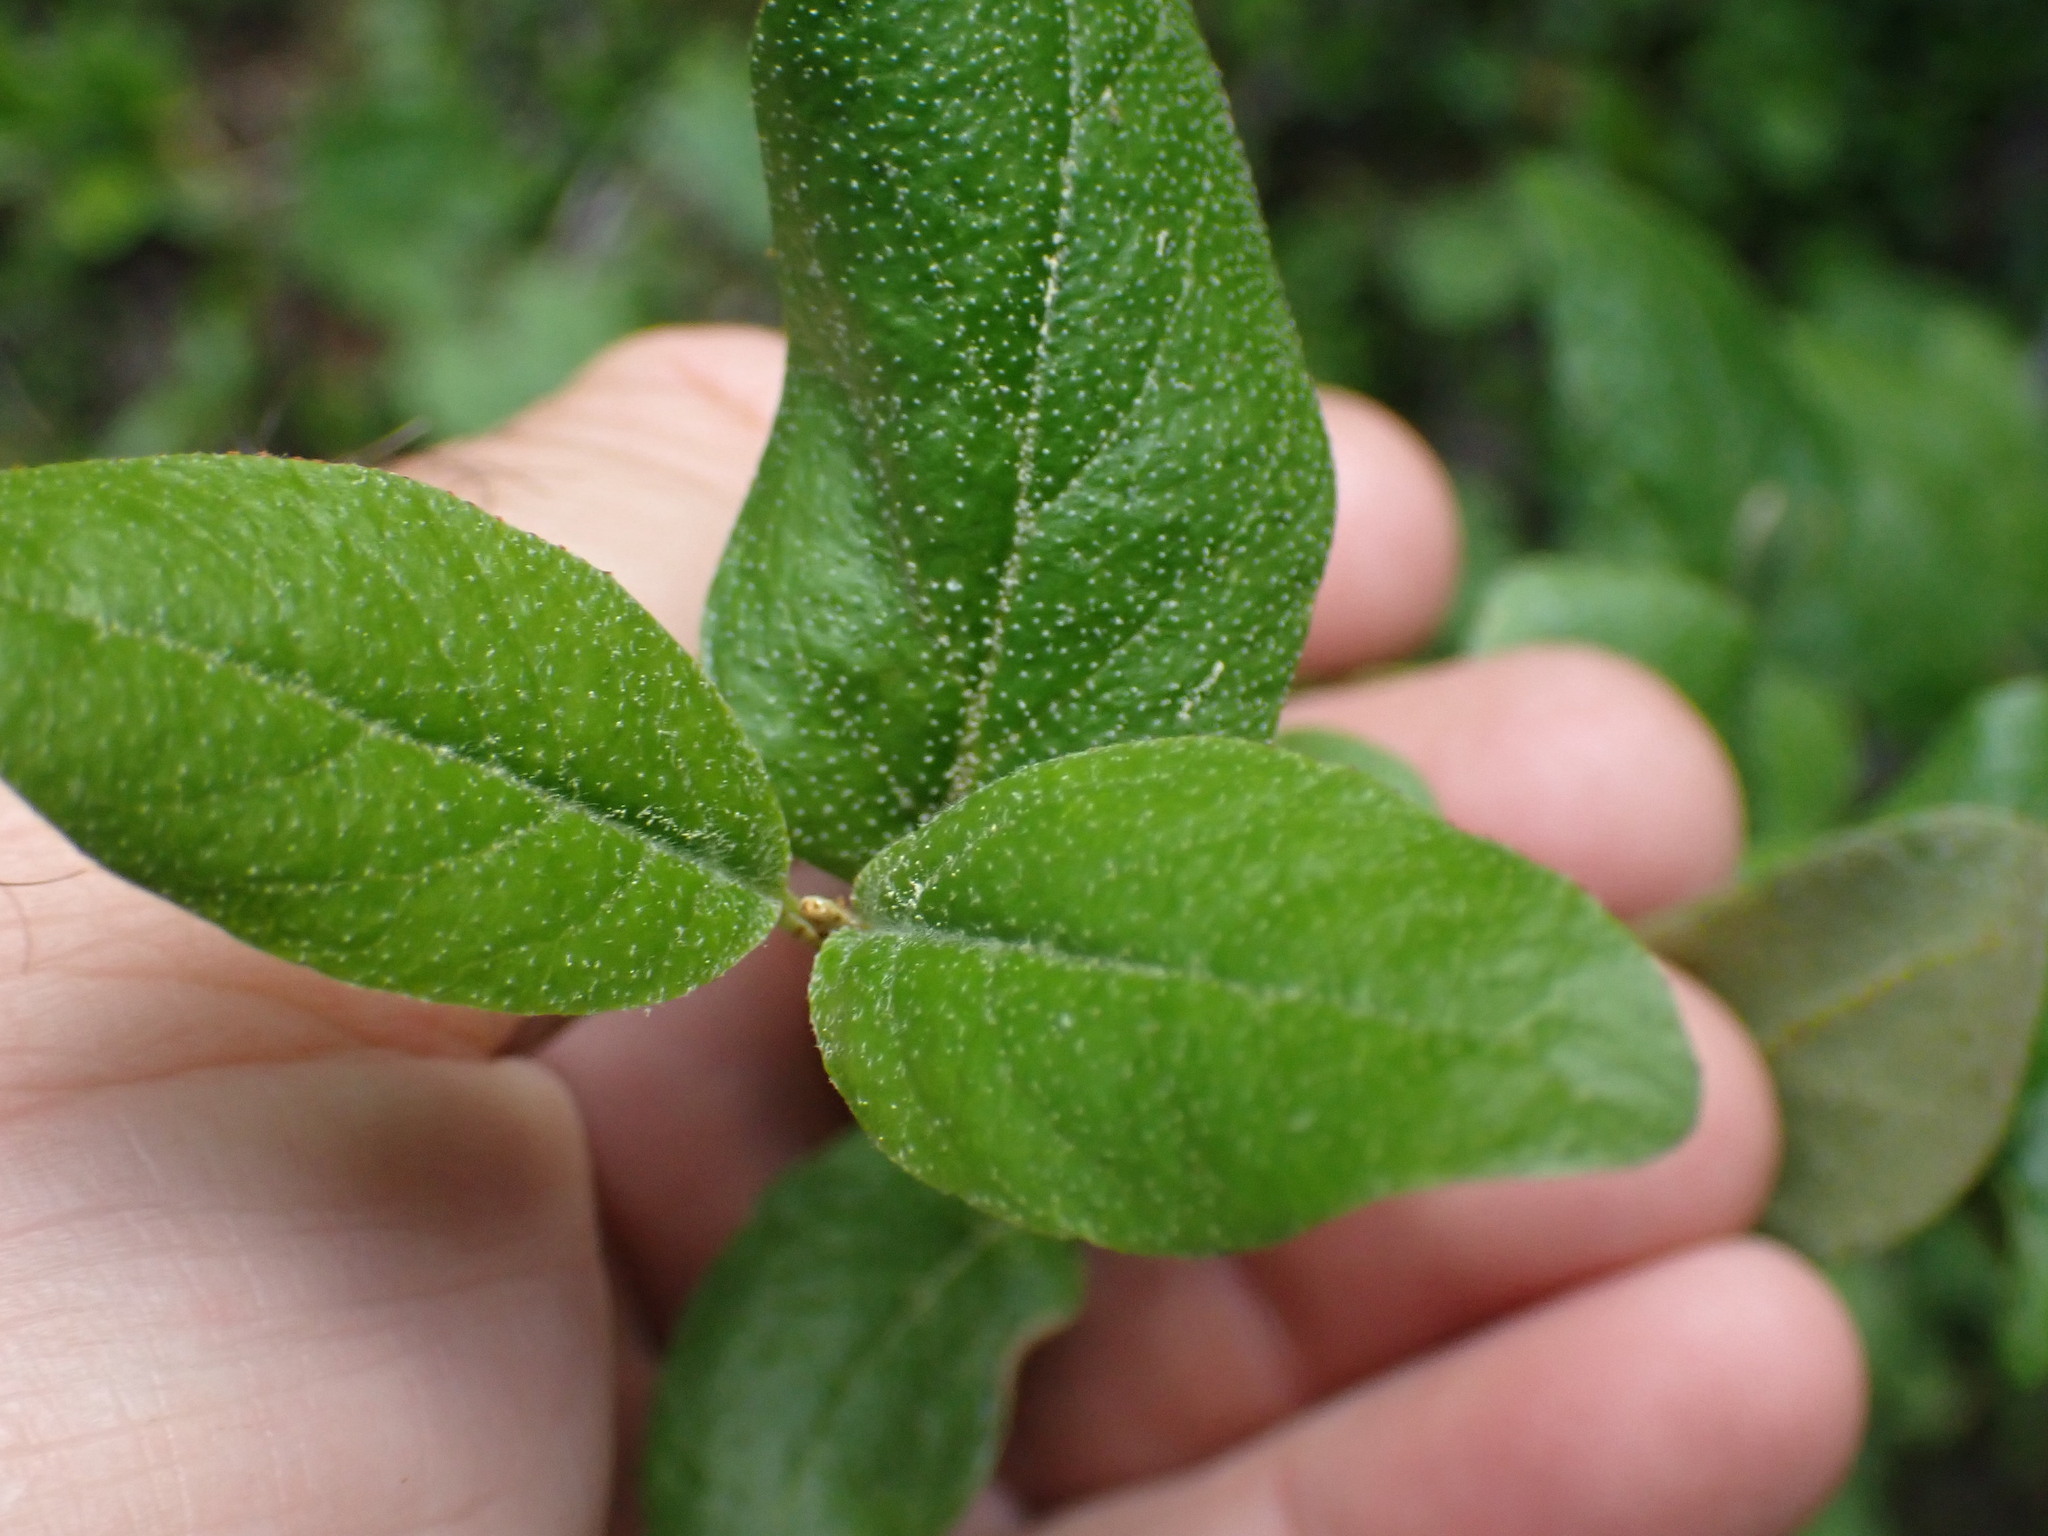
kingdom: Plantae
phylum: Tracheophyta
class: Magnoliopsida
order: Rosales
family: Elaeagnaceae
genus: Shepherdia
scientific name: Shepherdia canadensis
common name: Soapberry
